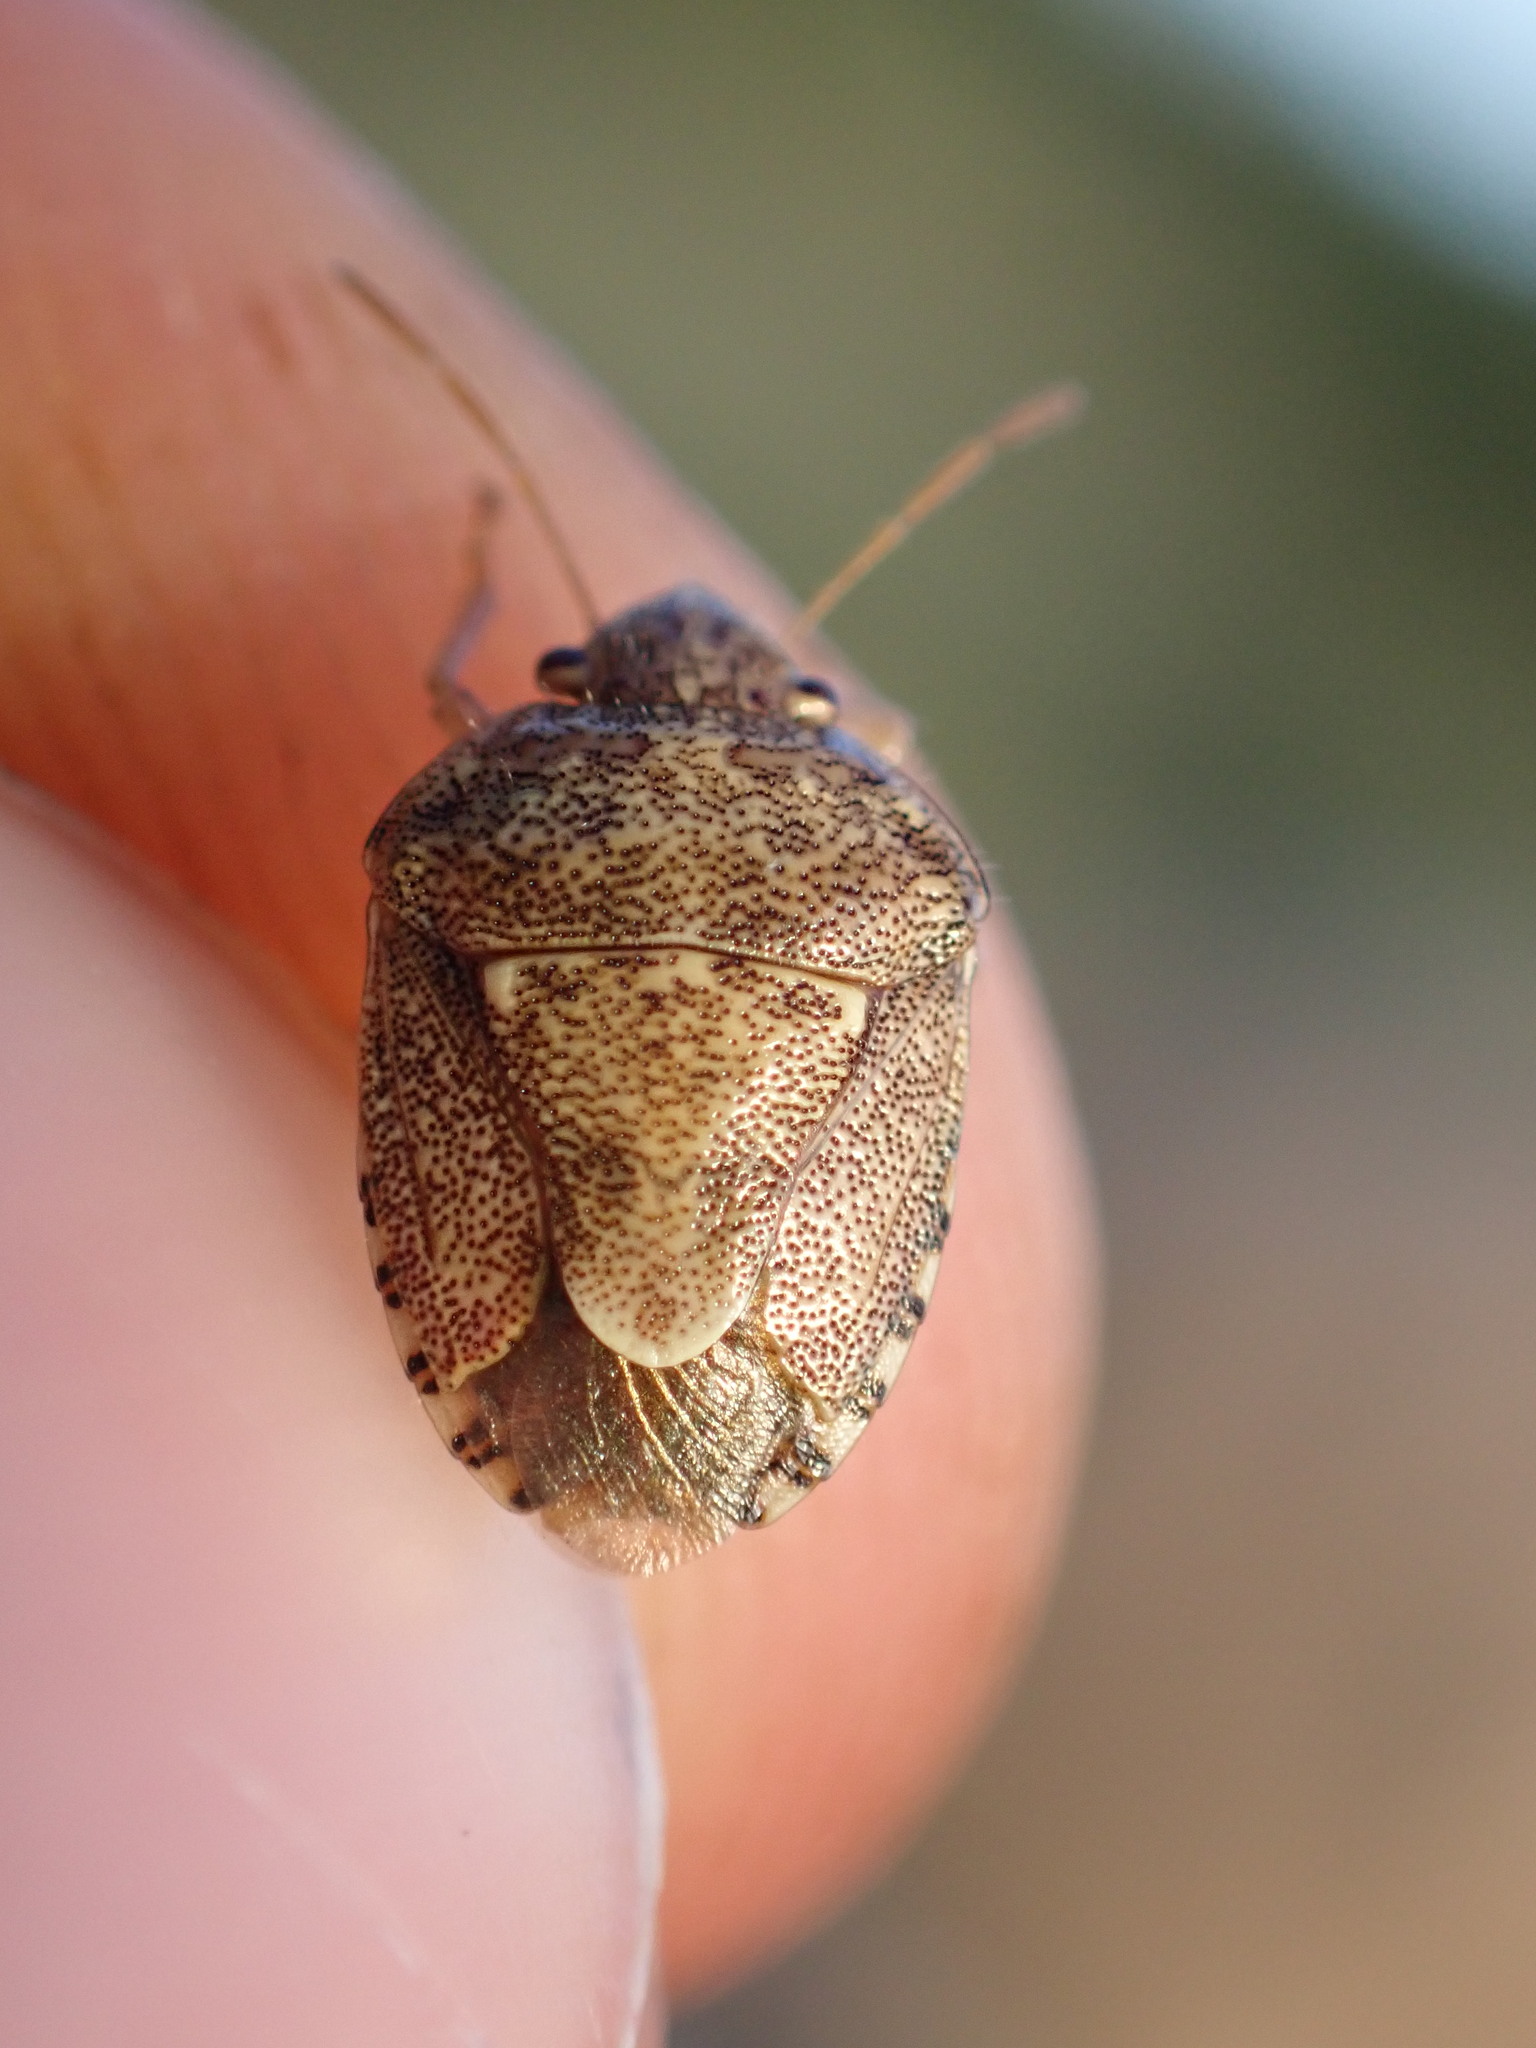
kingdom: Animalia
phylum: Arthropoda
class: Insecta
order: Hemiptera
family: Pentatomidae
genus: Staria
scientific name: Staria lunata
